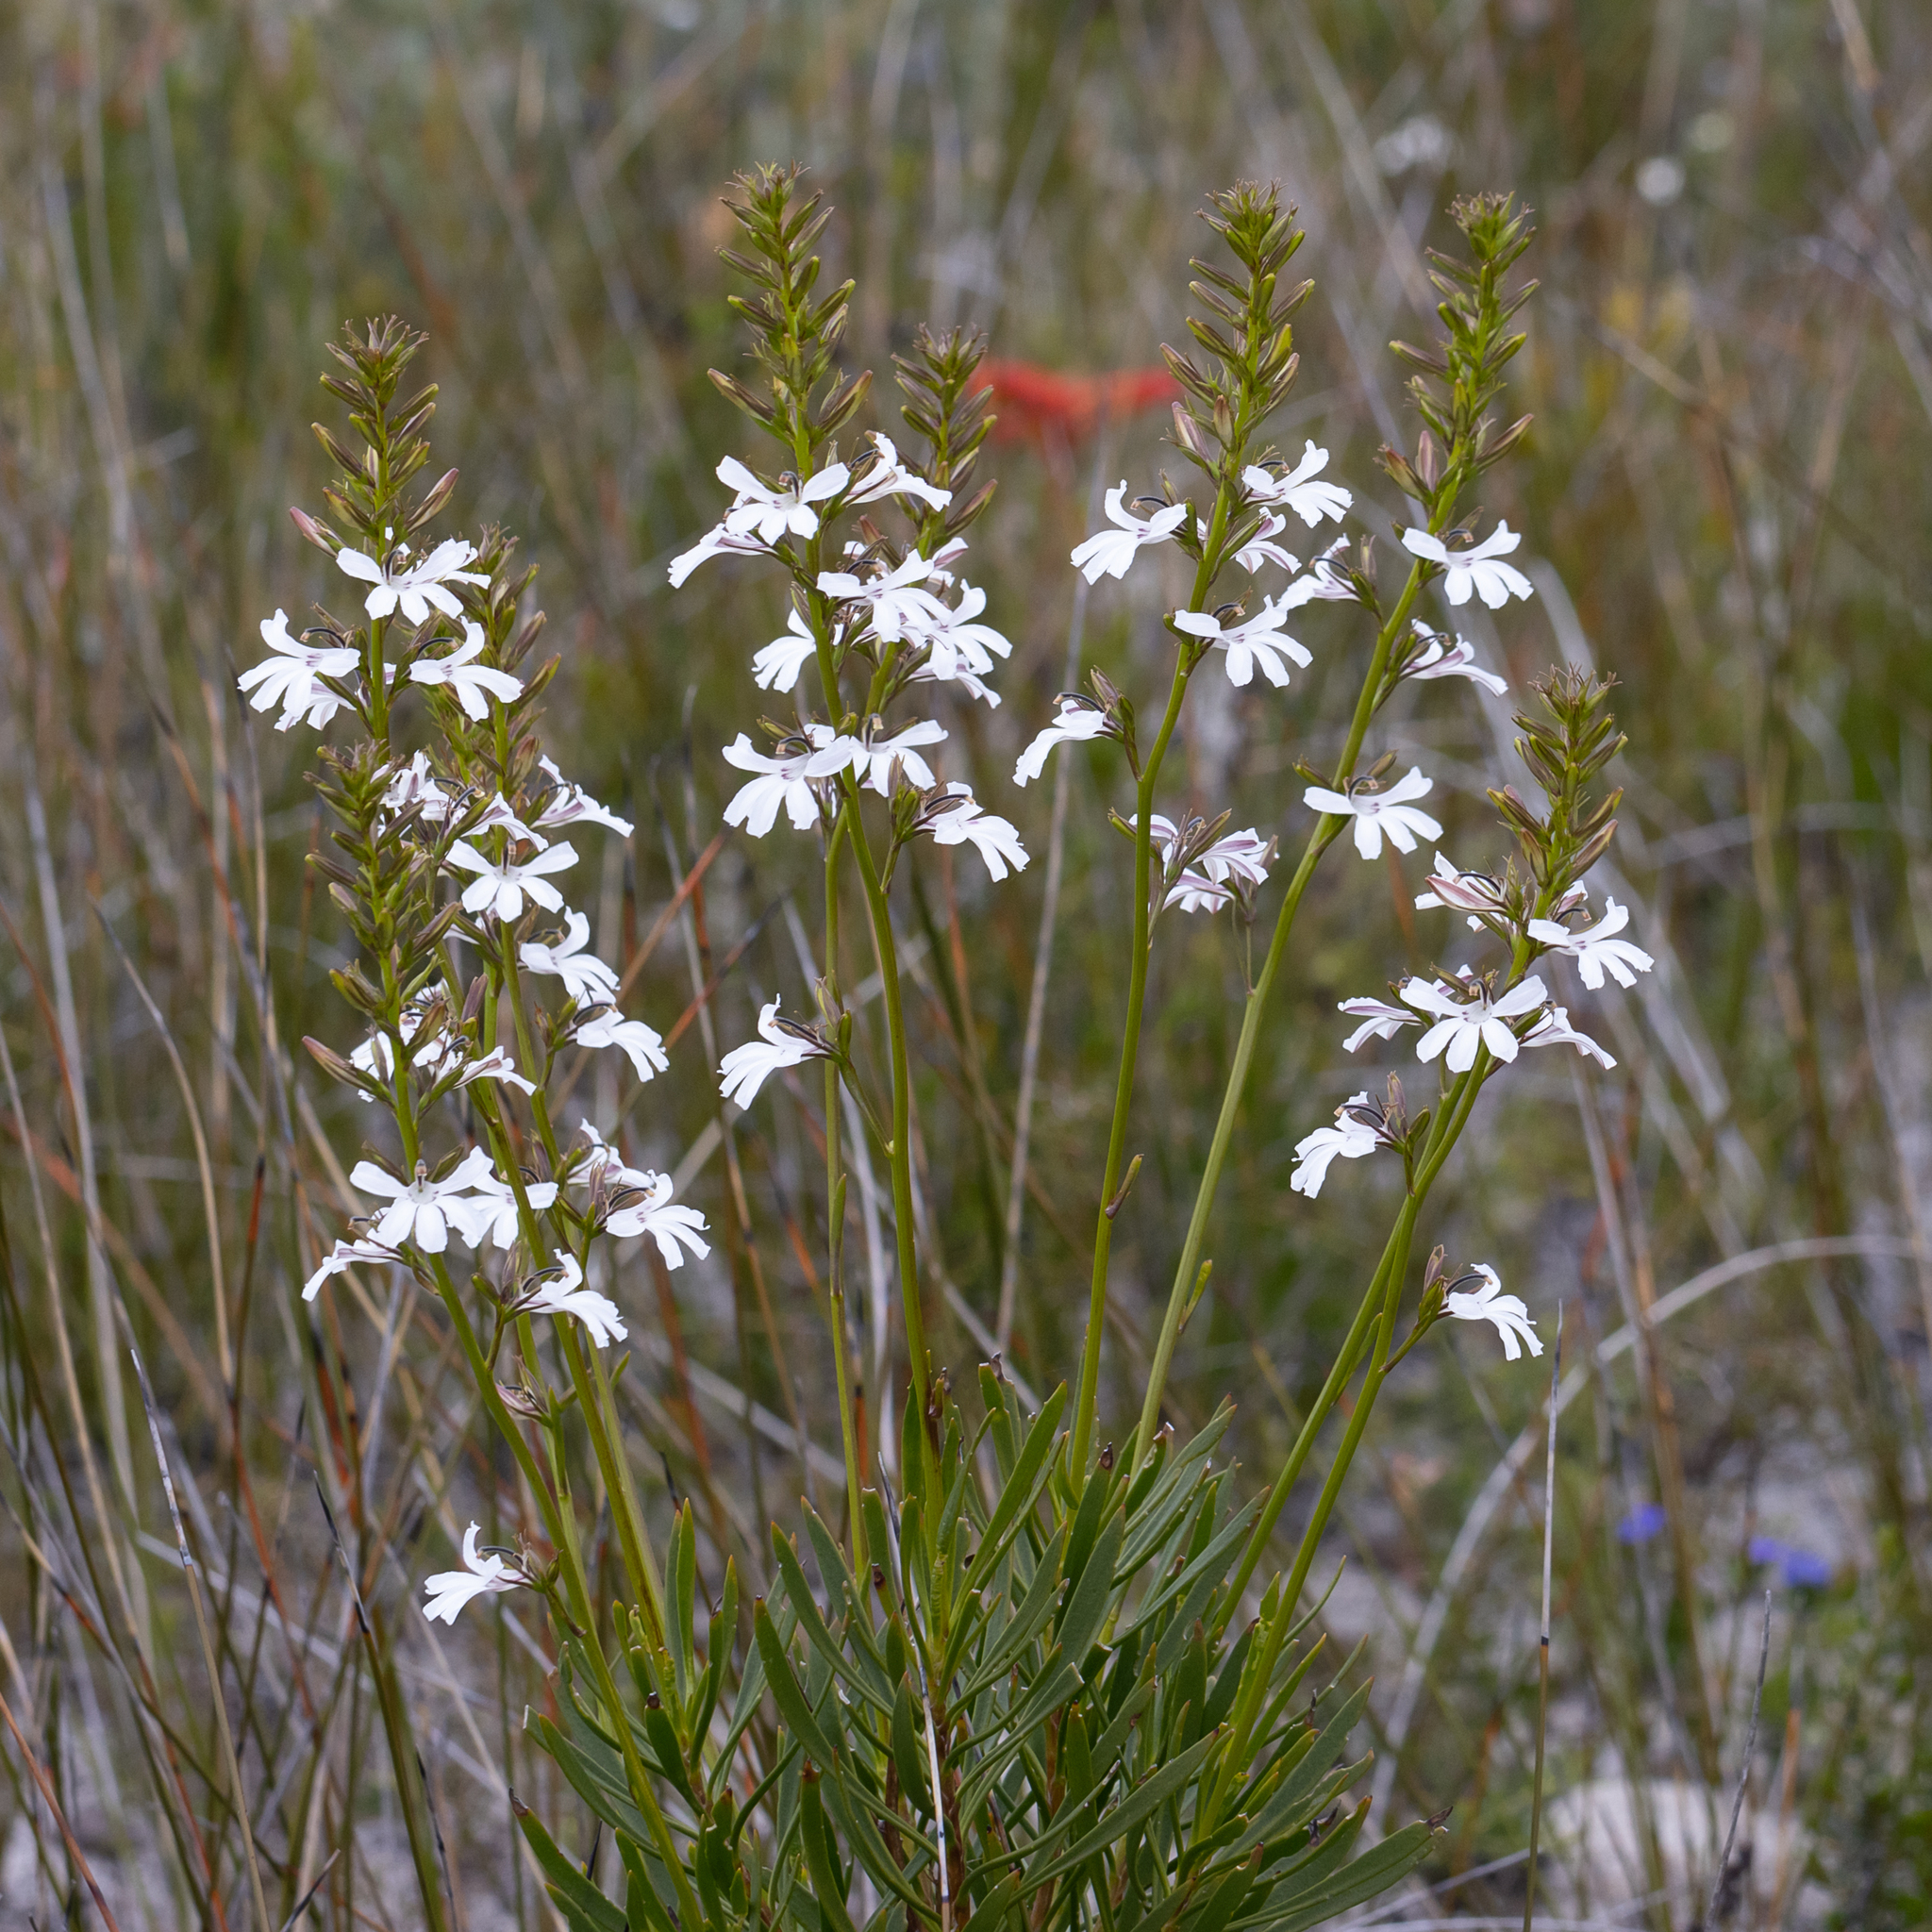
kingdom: Plantae
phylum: Tracheophyta
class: Magnoliopsida
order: Asterales
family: Goodeniaceae
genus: Goodenia
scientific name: Goodenia scapigera
